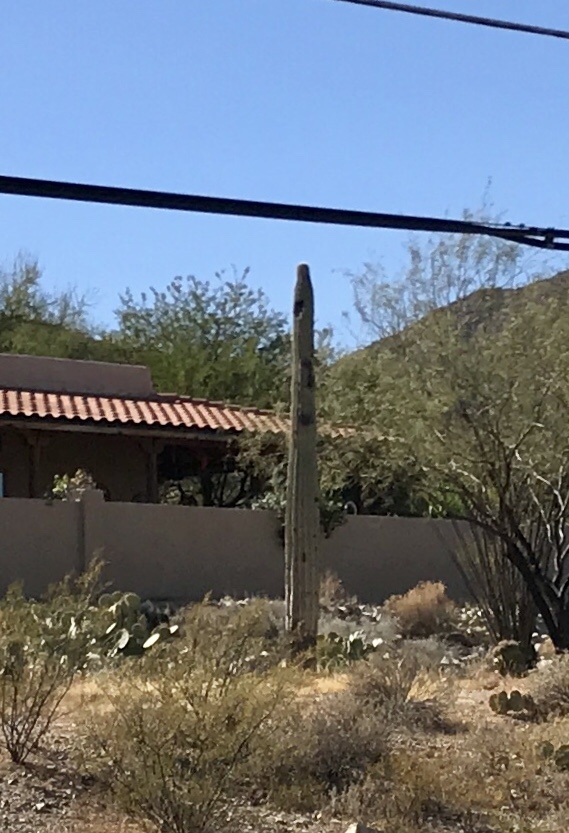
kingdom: Plantae
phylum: Tracheophyta
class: Magnoliopsida
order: Caryophyllales
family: Cactaceae
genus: Carnegiea
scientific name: Carnegiea gigantea
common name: Saguaro
